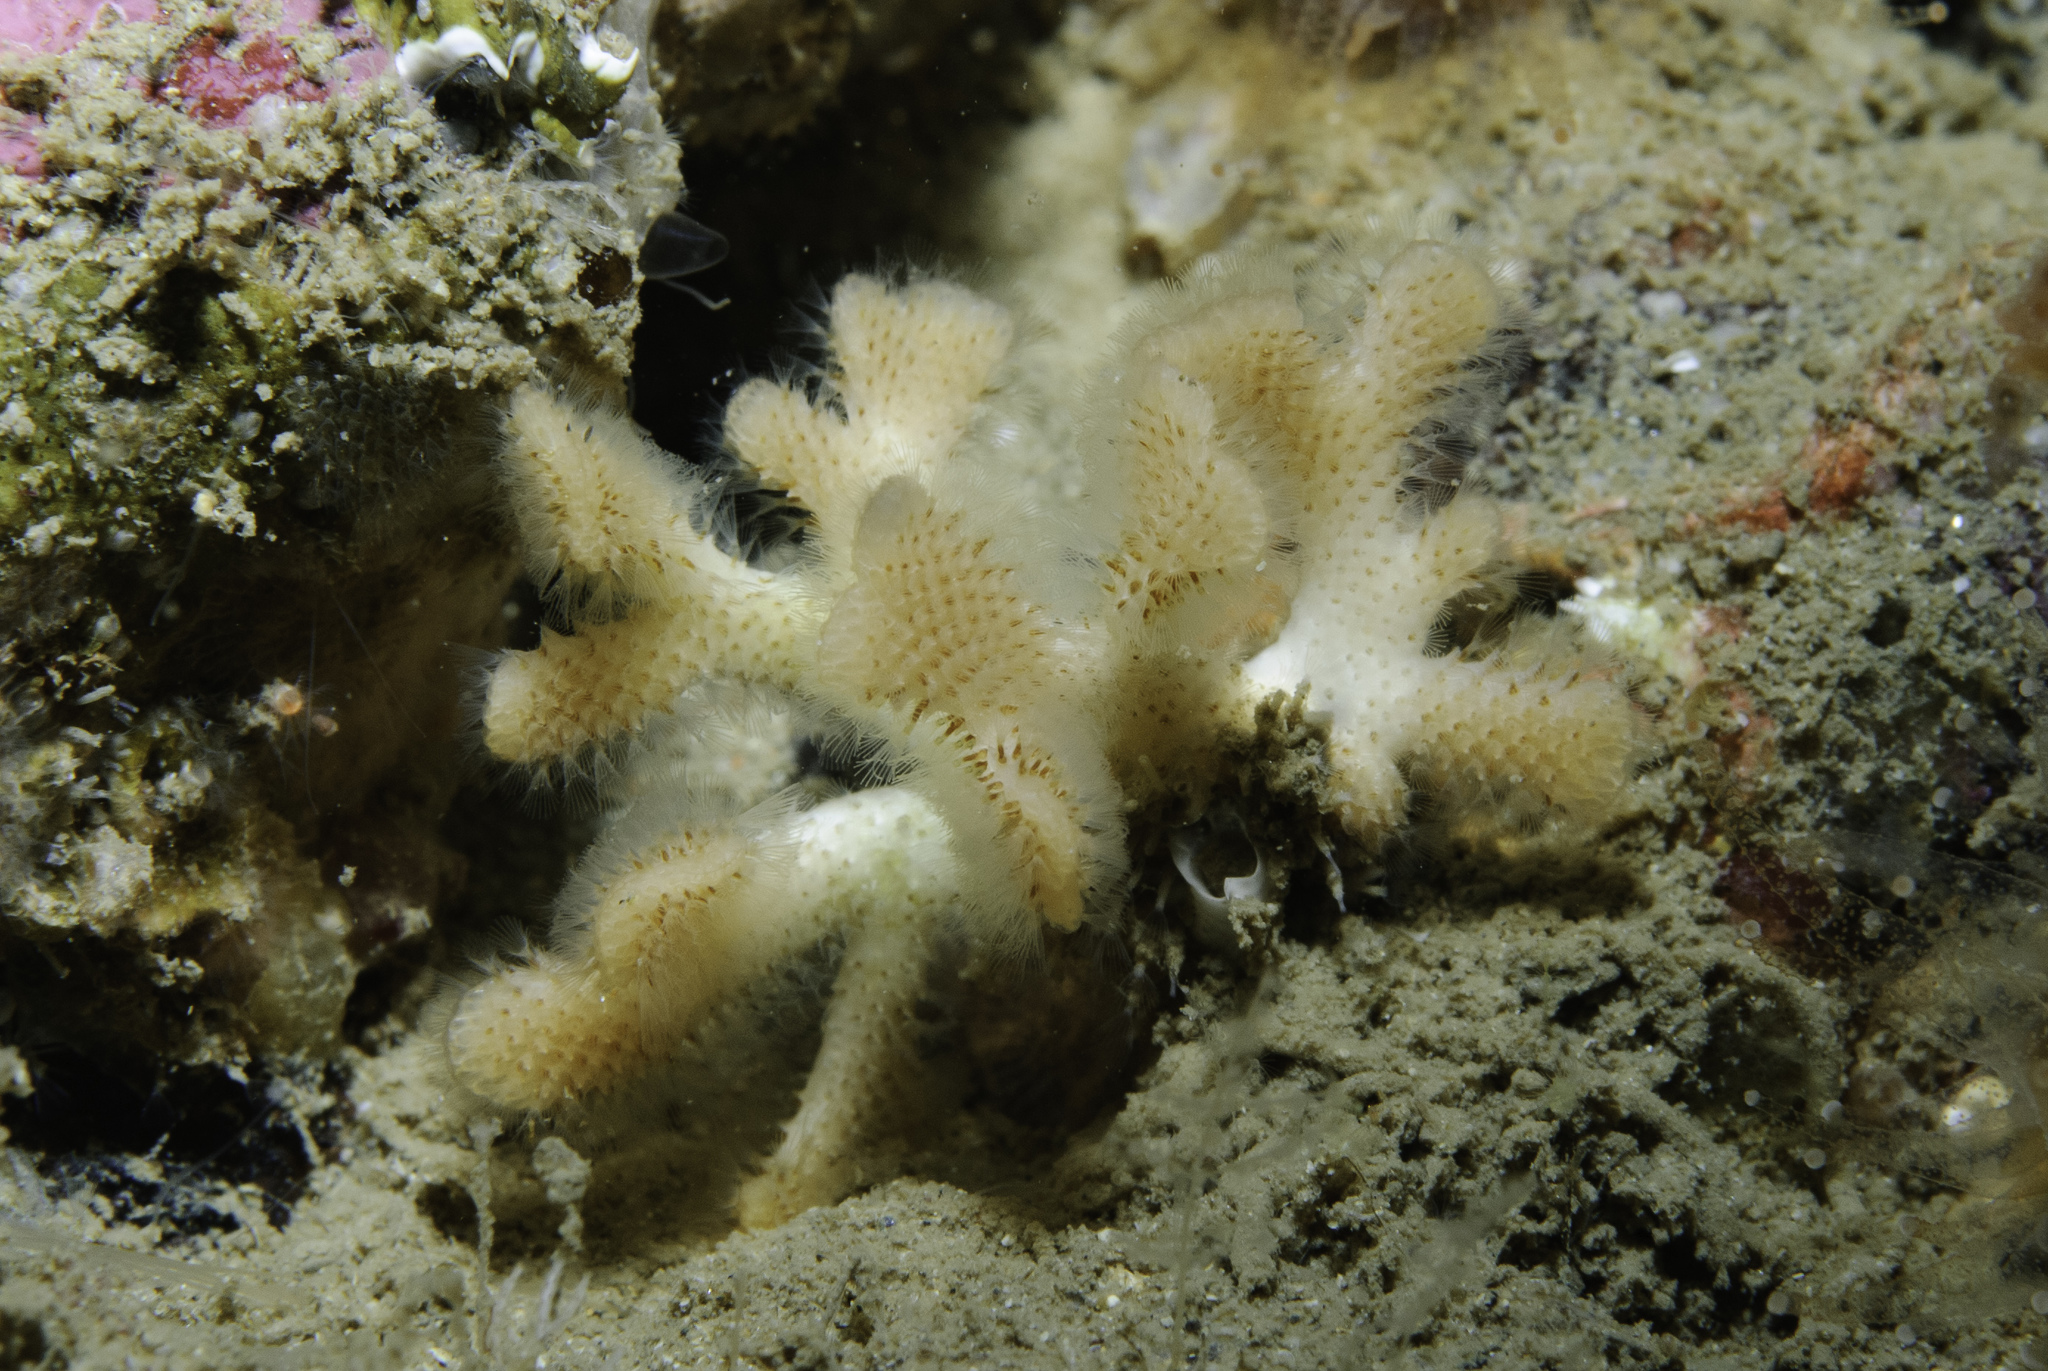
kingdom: Animalia
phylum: Bryozoa
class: Gymnolaemata
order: Cheilostomatida
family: Bryocryptellidae
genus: Palmiskenea
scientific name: Palmiskenea skenei
